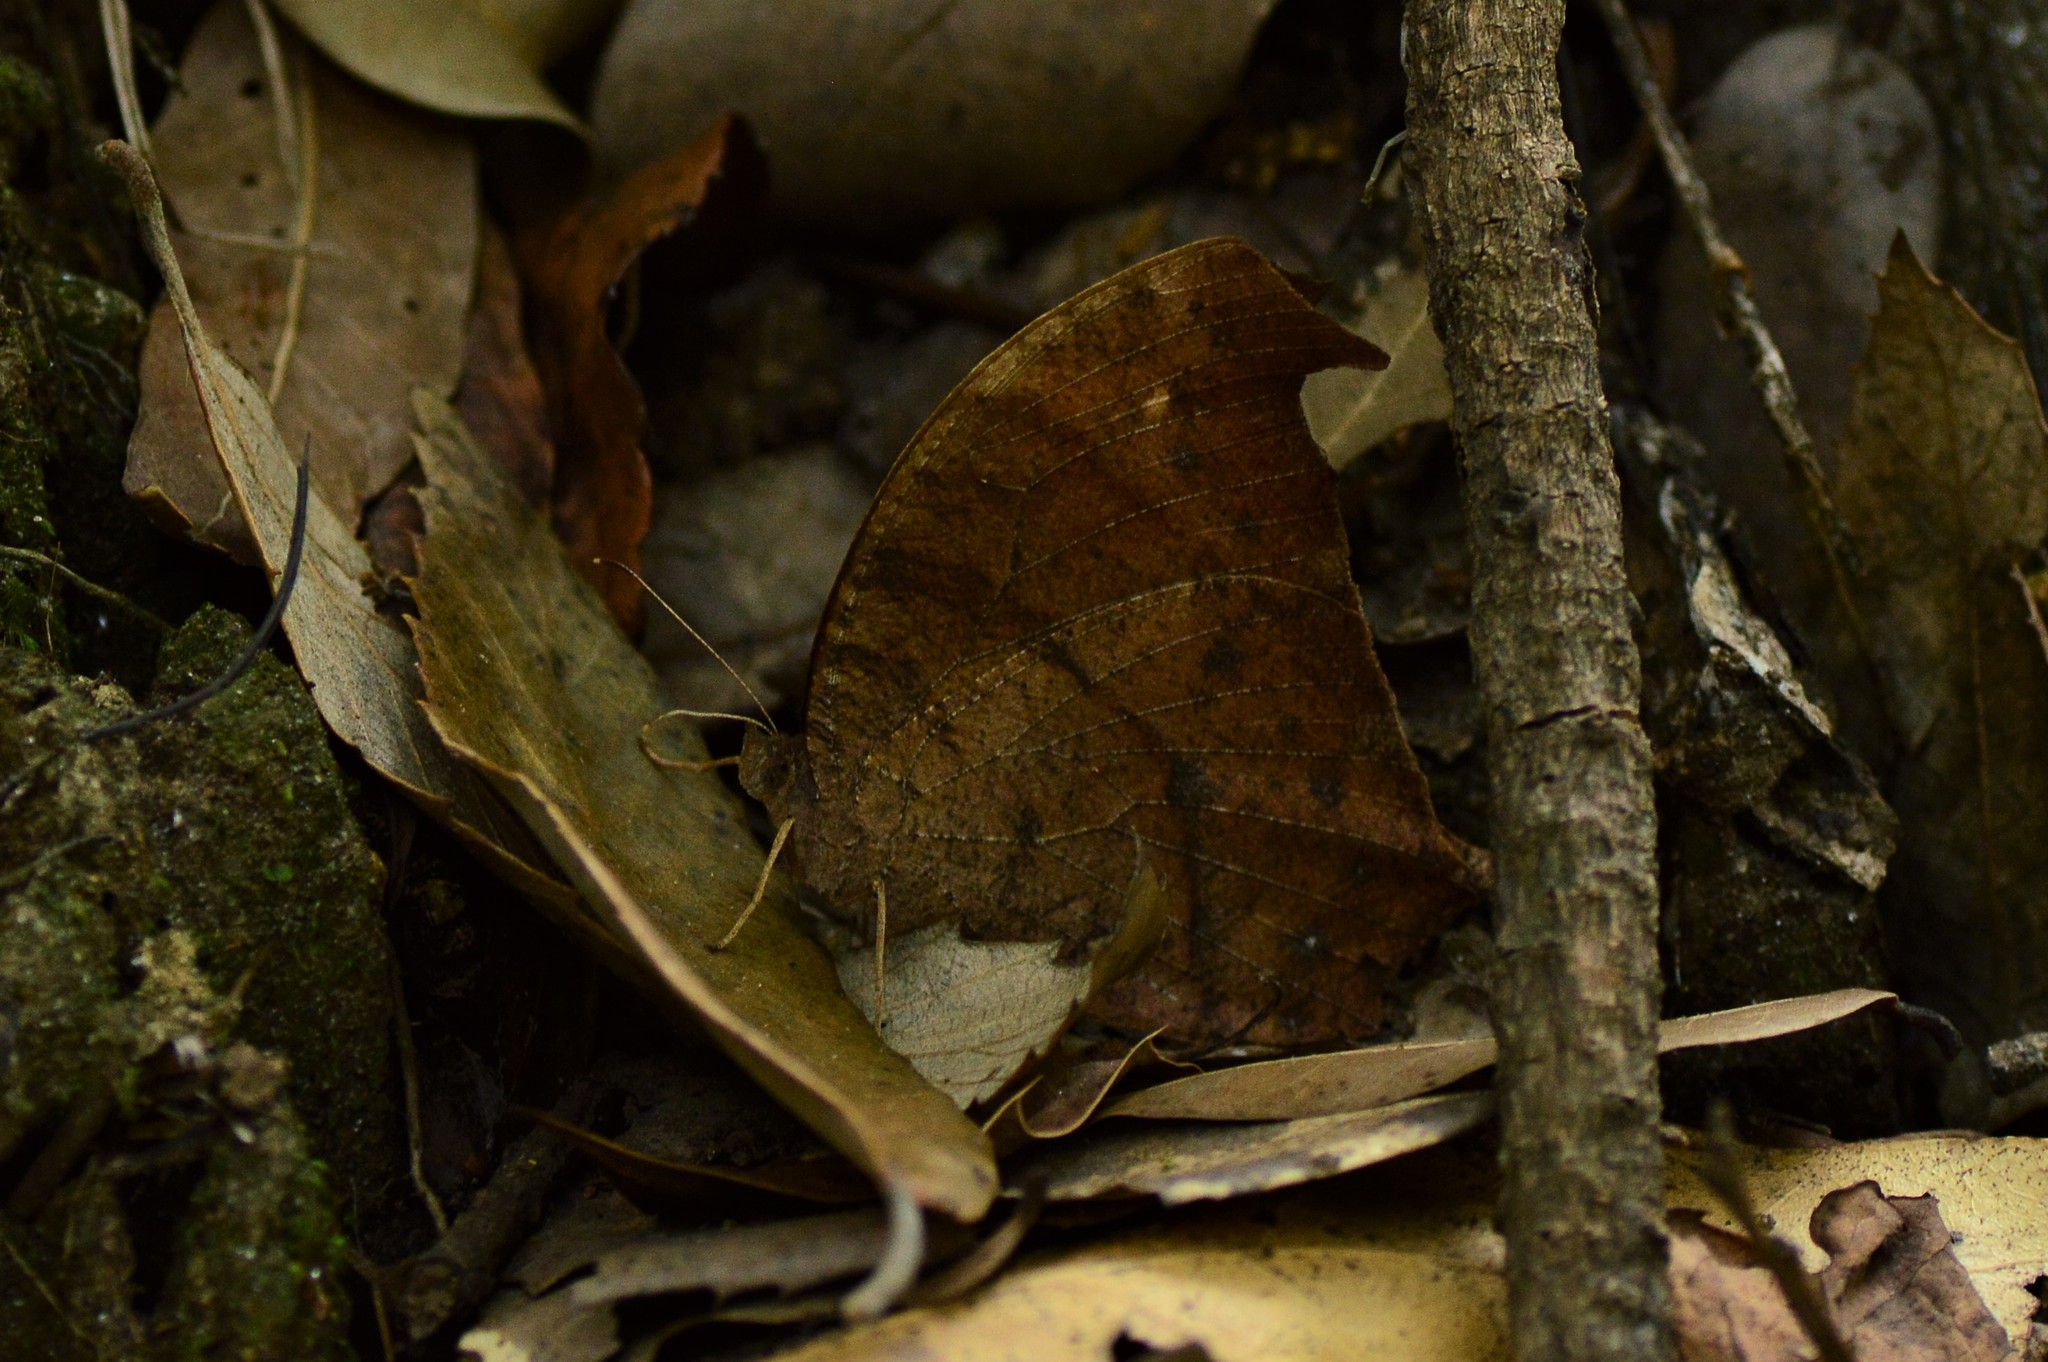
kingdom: Animalia
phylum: Arthropoda
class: Insecta
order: Lepidoptera
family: Nymphalidae
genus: Melanitis
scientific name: Melanitis leda
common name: Twilight brown
